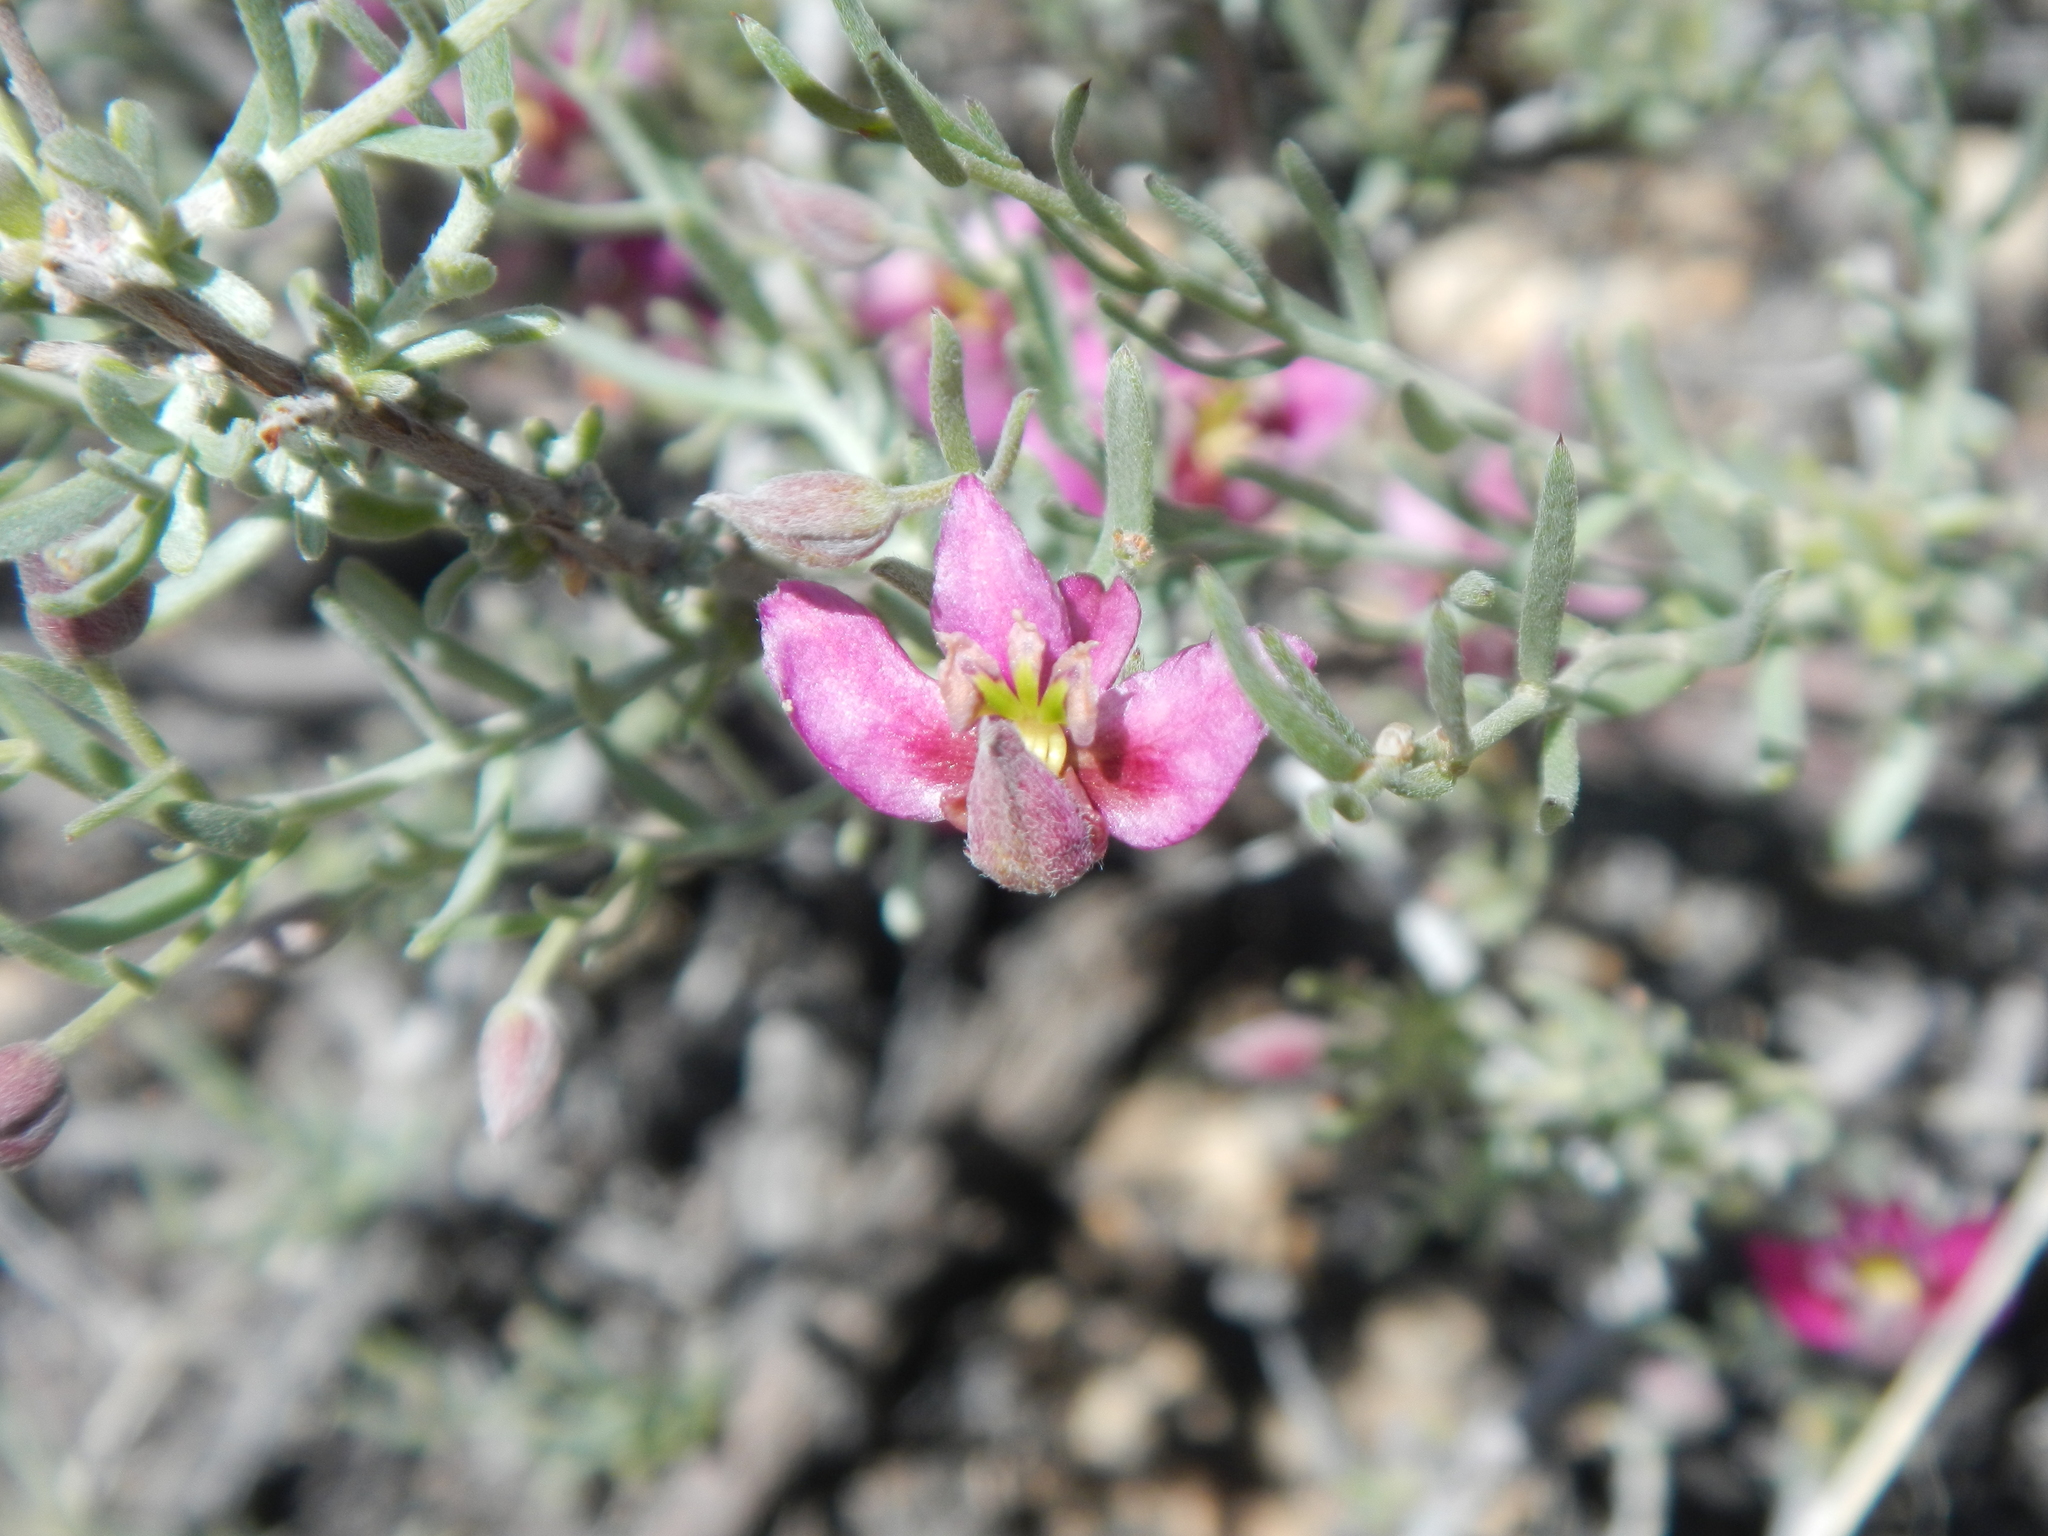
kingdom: Plantae
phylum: Tracheophyta
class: Magnoliopsida
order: Zygophyllales
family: Krameriaceae
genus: Krameria
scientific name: Krameria erecta
